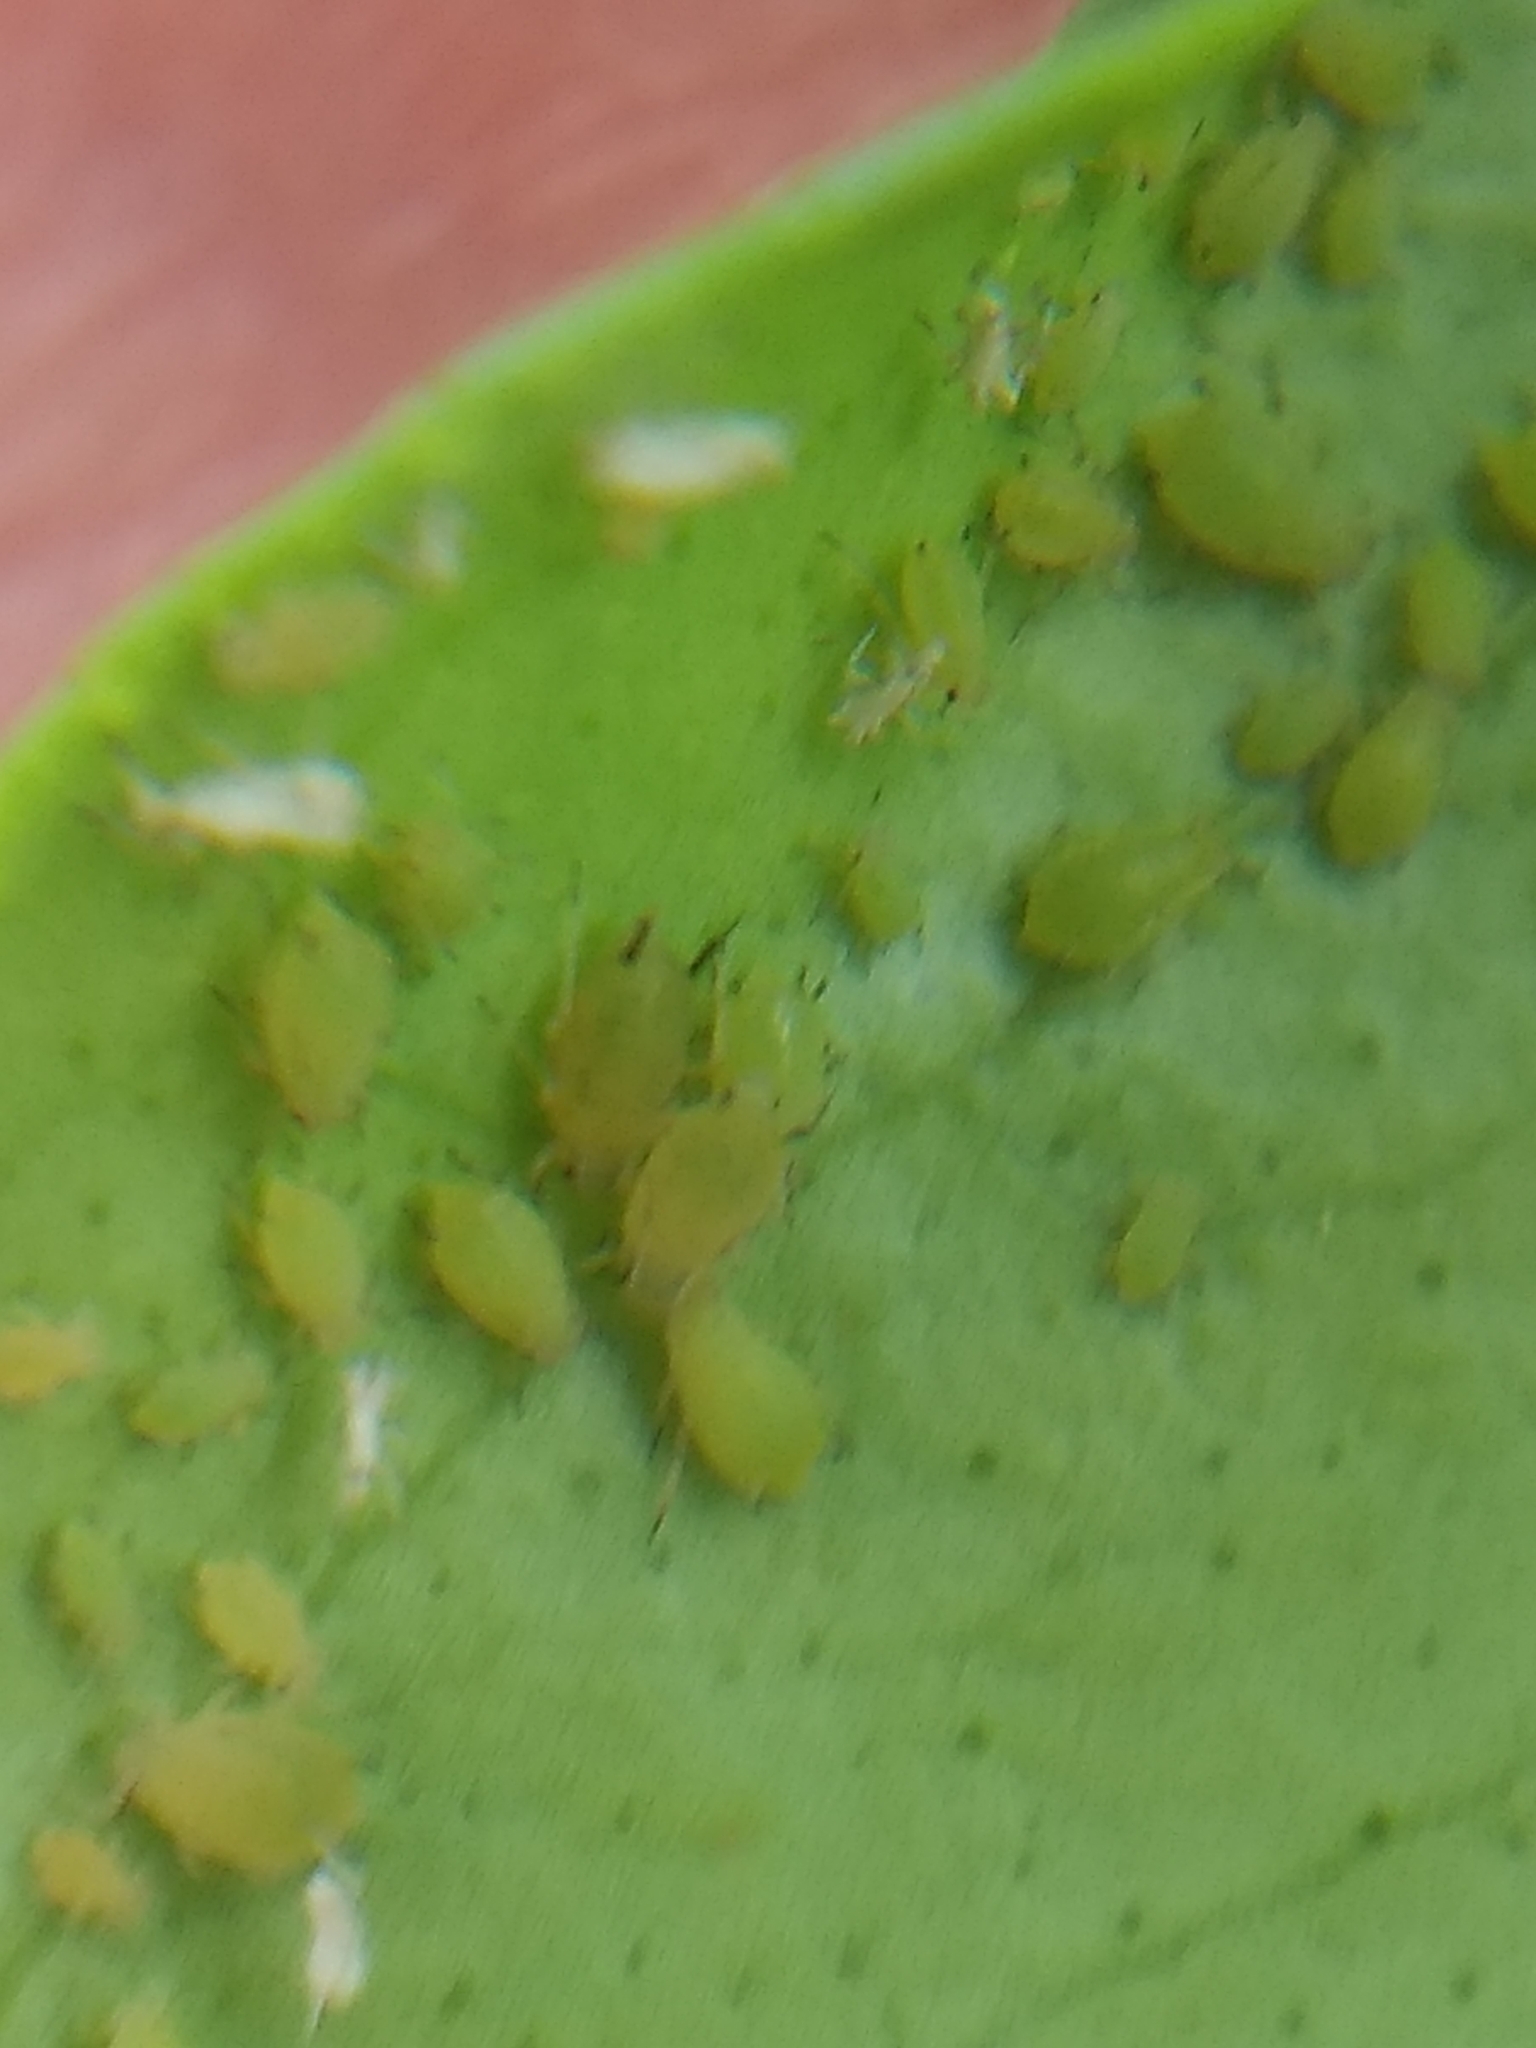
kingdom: Animalia
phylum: Arthropoda
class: Insecta
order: Hemiptera
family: Aphididae
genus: Aphis
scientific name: Aphis spiraecola
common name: Spirea aphid
